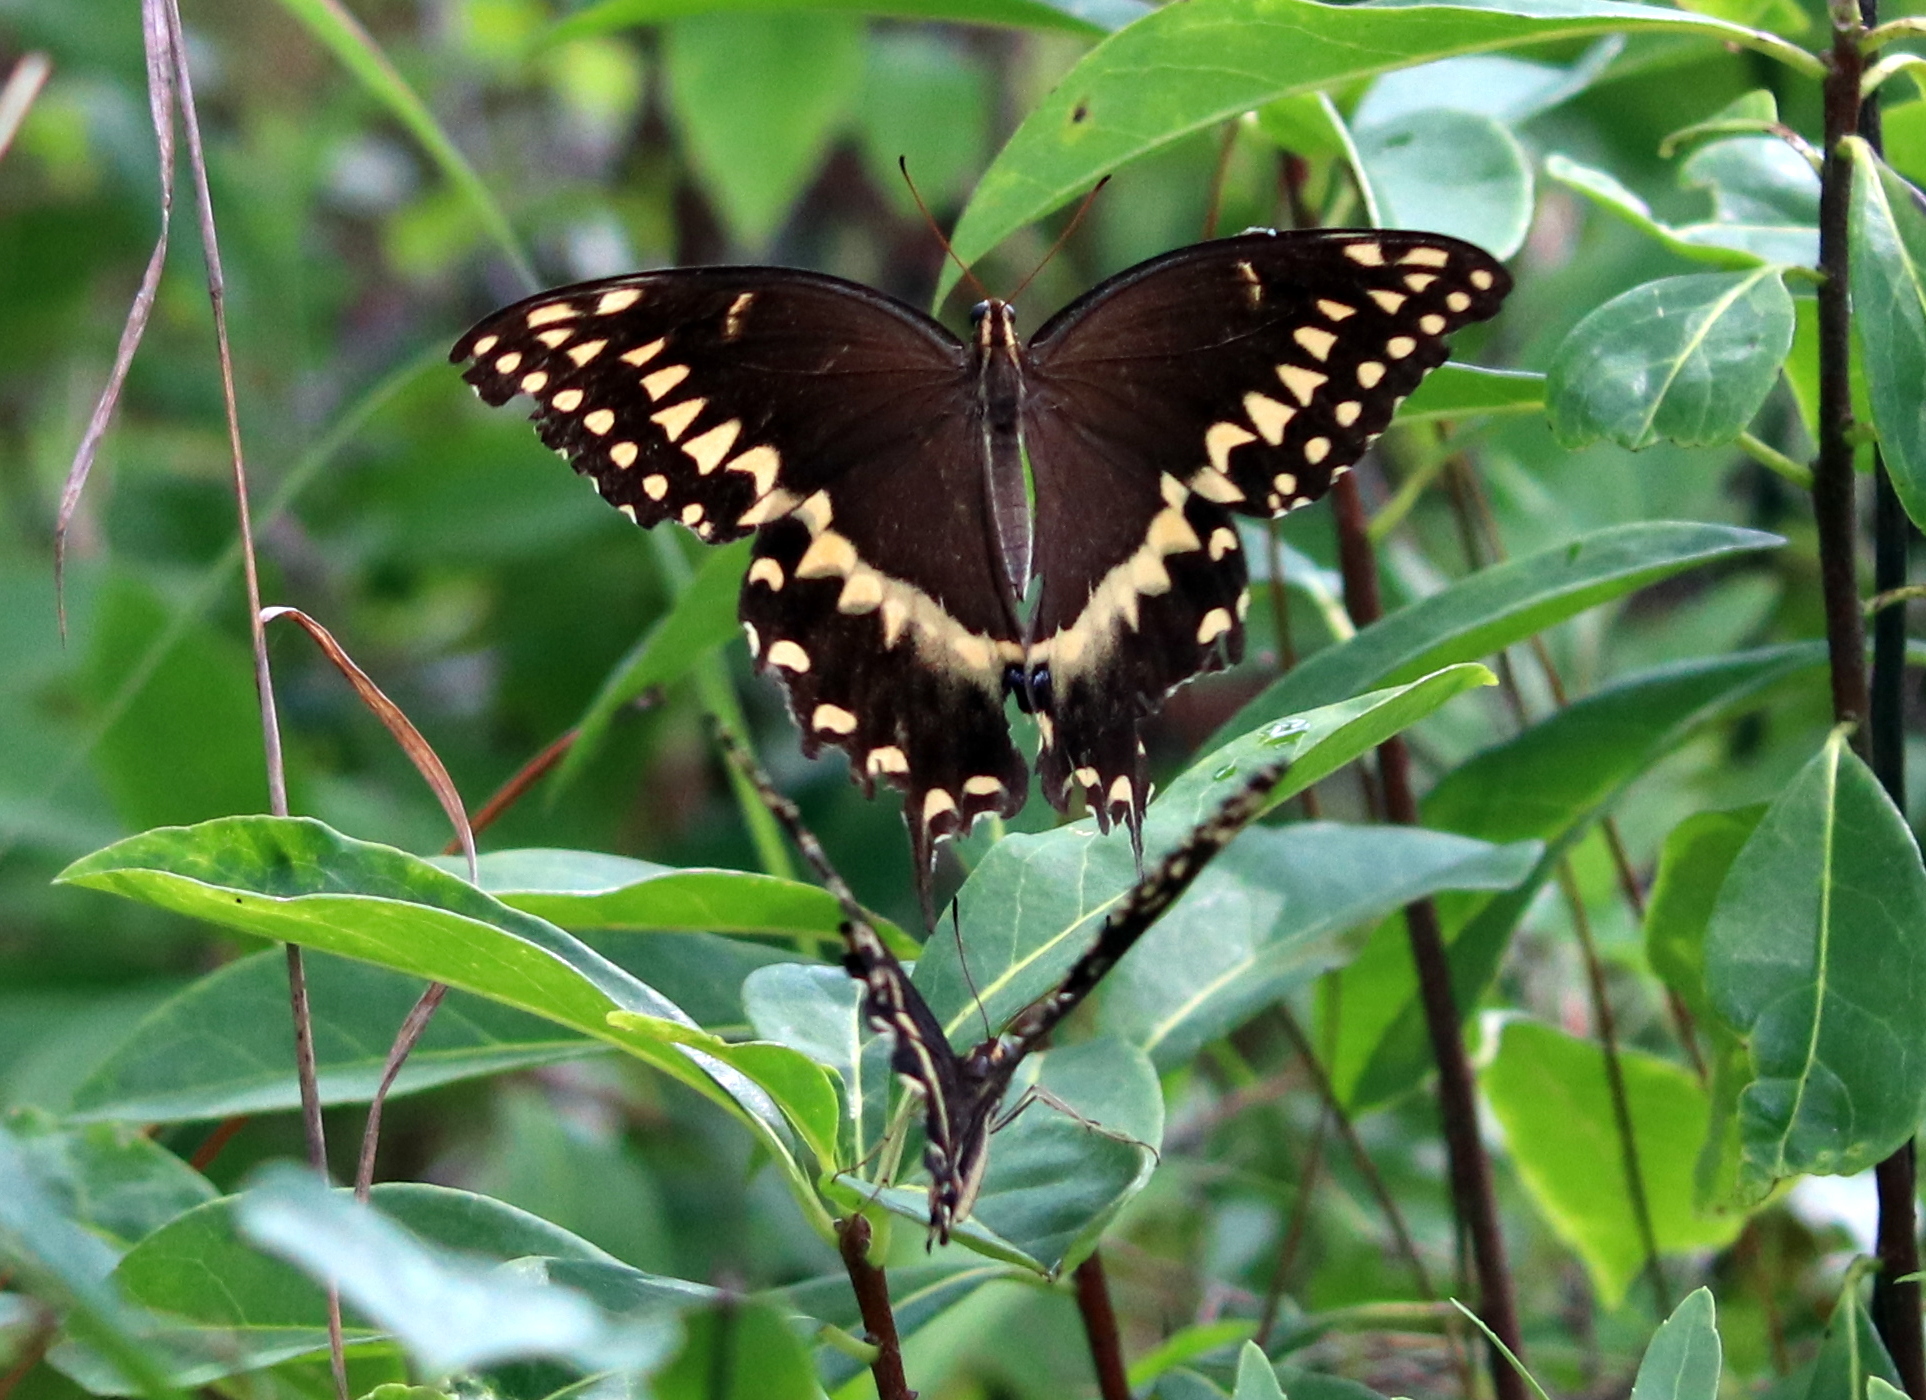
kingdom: Animalia
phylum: Arthropoda
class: Insecta
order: Lepidoptera
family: Papilionidae
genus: Papilio
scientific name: Papilio palamedes
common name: Palamedes swallowtail
